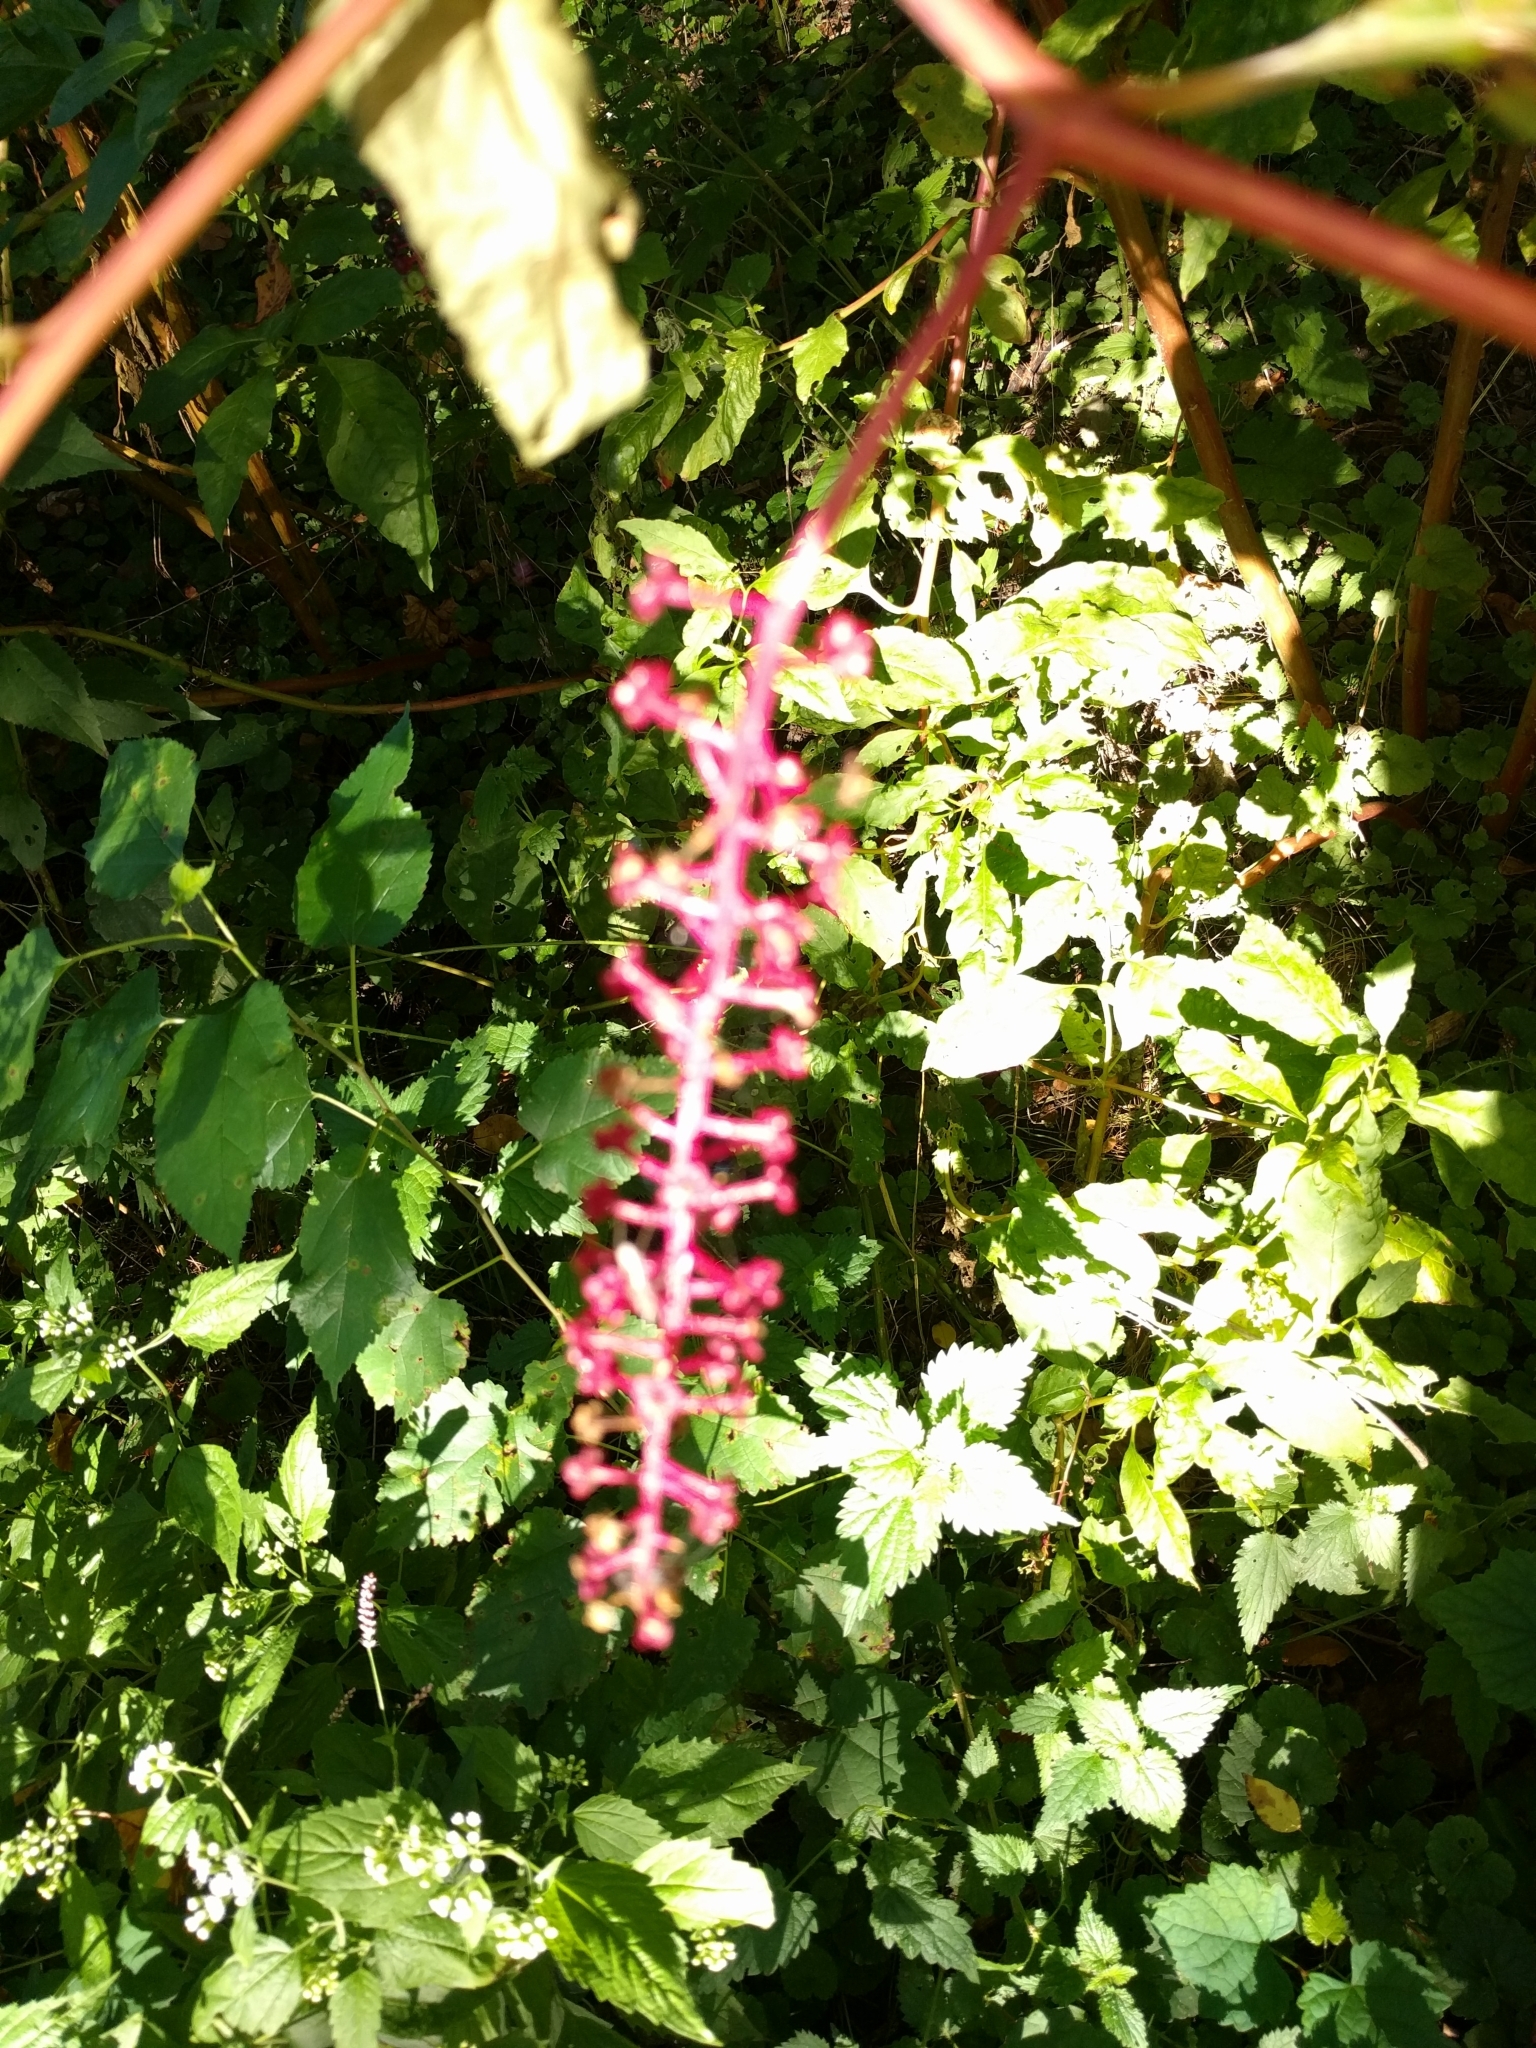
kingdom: Plantae
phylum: Tracheophyta
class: Magnoliopsida
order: Caryophyllales
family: Phytolaccaceae
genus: Phytolacca
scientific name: Phytolacca americana
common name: American pokeweed
